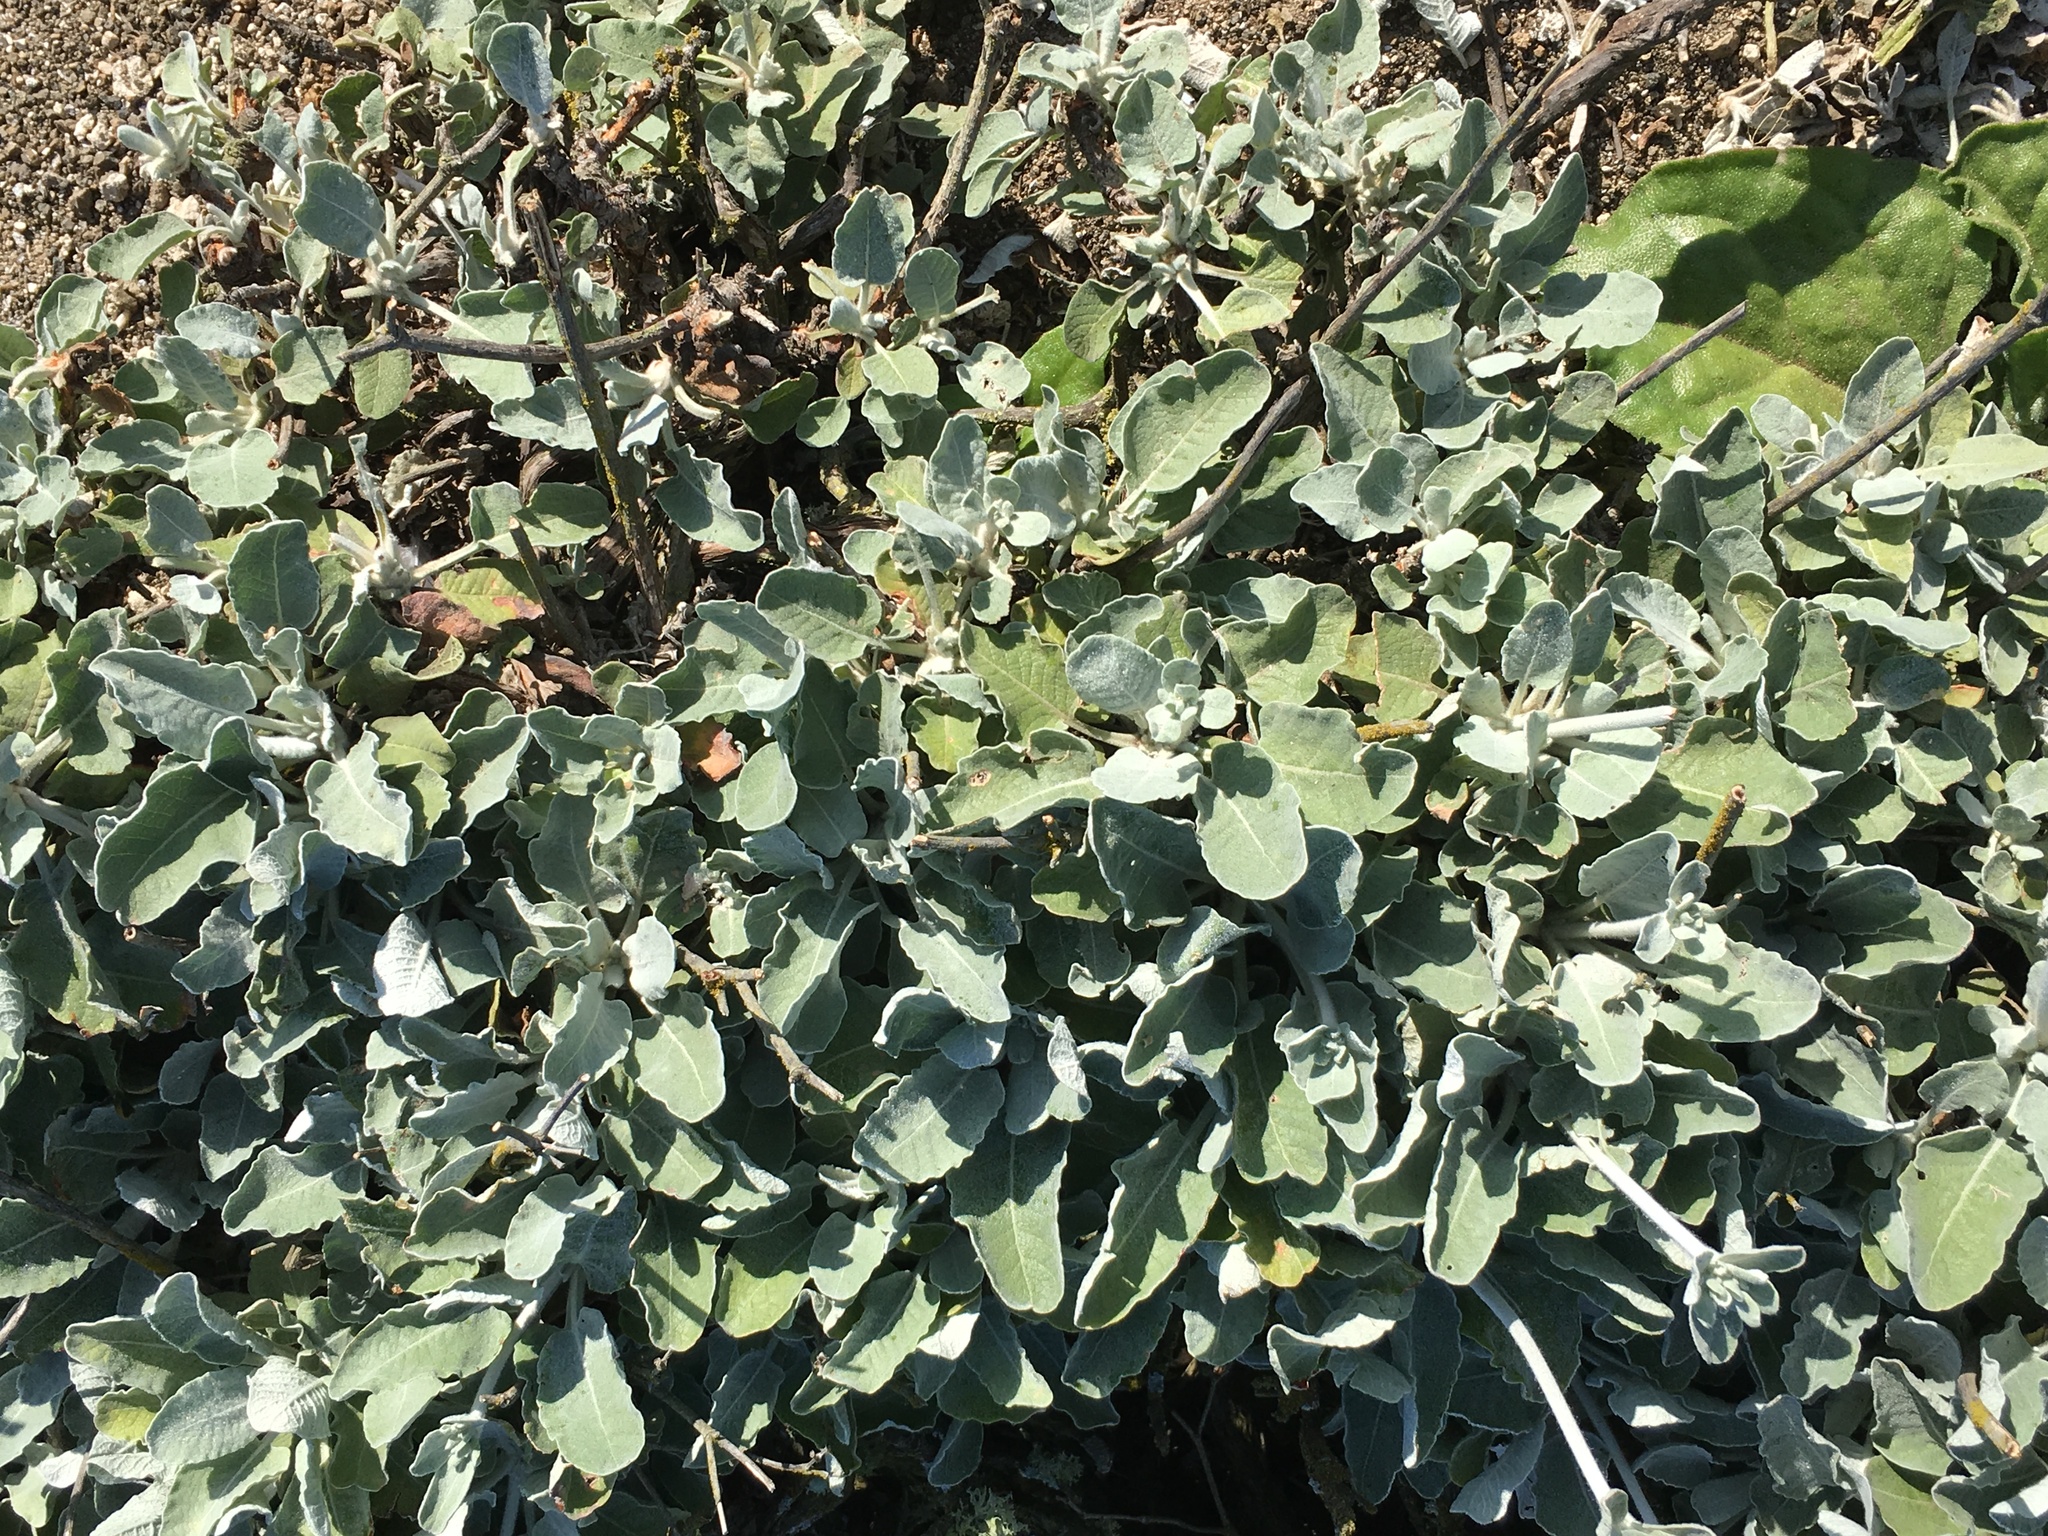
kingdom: Plantae
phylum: Tracheophyta
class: Magnoliopsida
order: Caryophyllales
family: Polygonaceae
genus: Eriogonum
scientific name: Eriogonum giganteum
